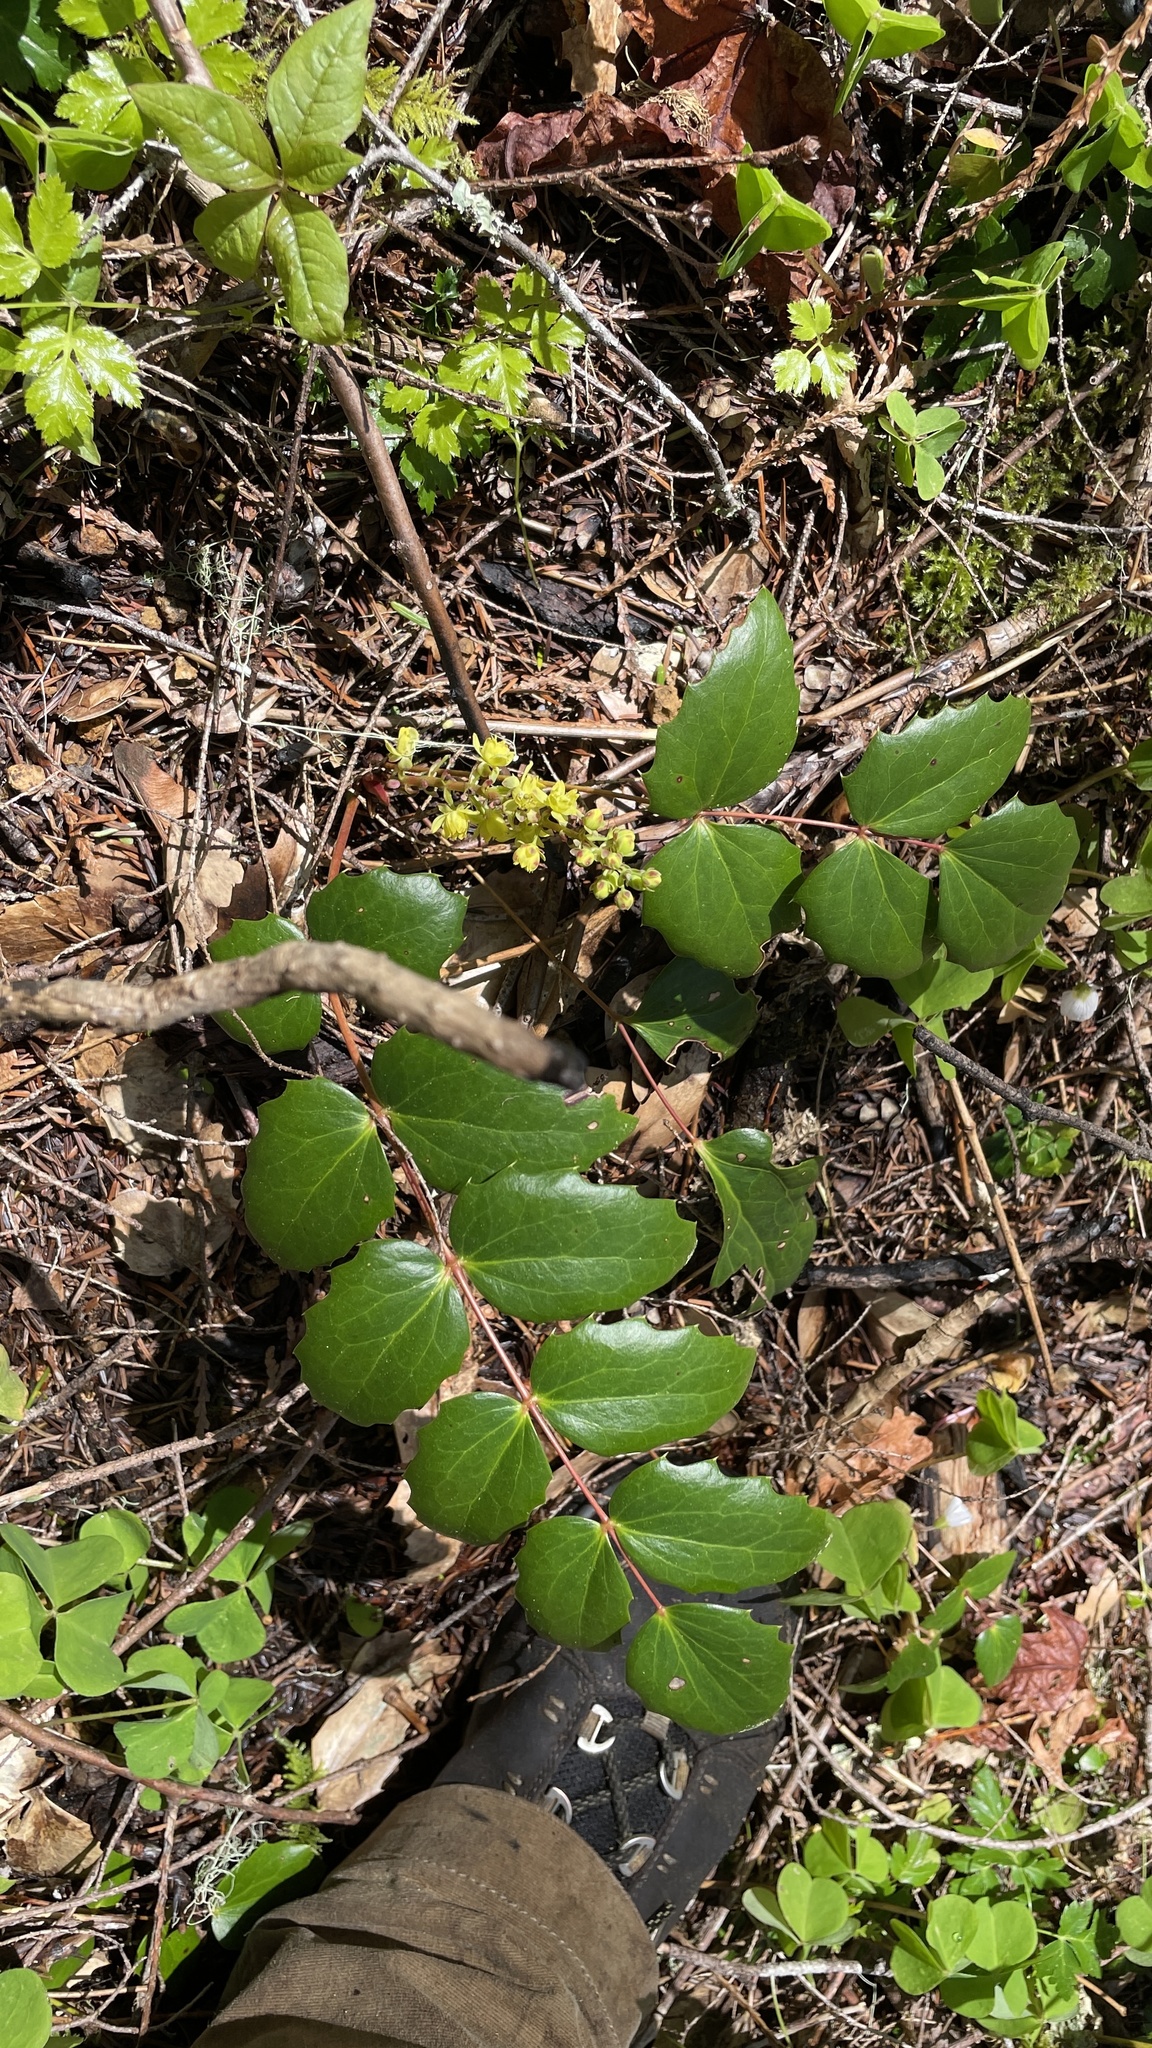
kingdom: Plantae
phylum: Tracheophyta
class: Magnoliopsida
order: Ranunculales
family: Berberidaceae
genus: Mahonia
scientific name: Mahonia nervosa
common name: Cascade oregon-grape
